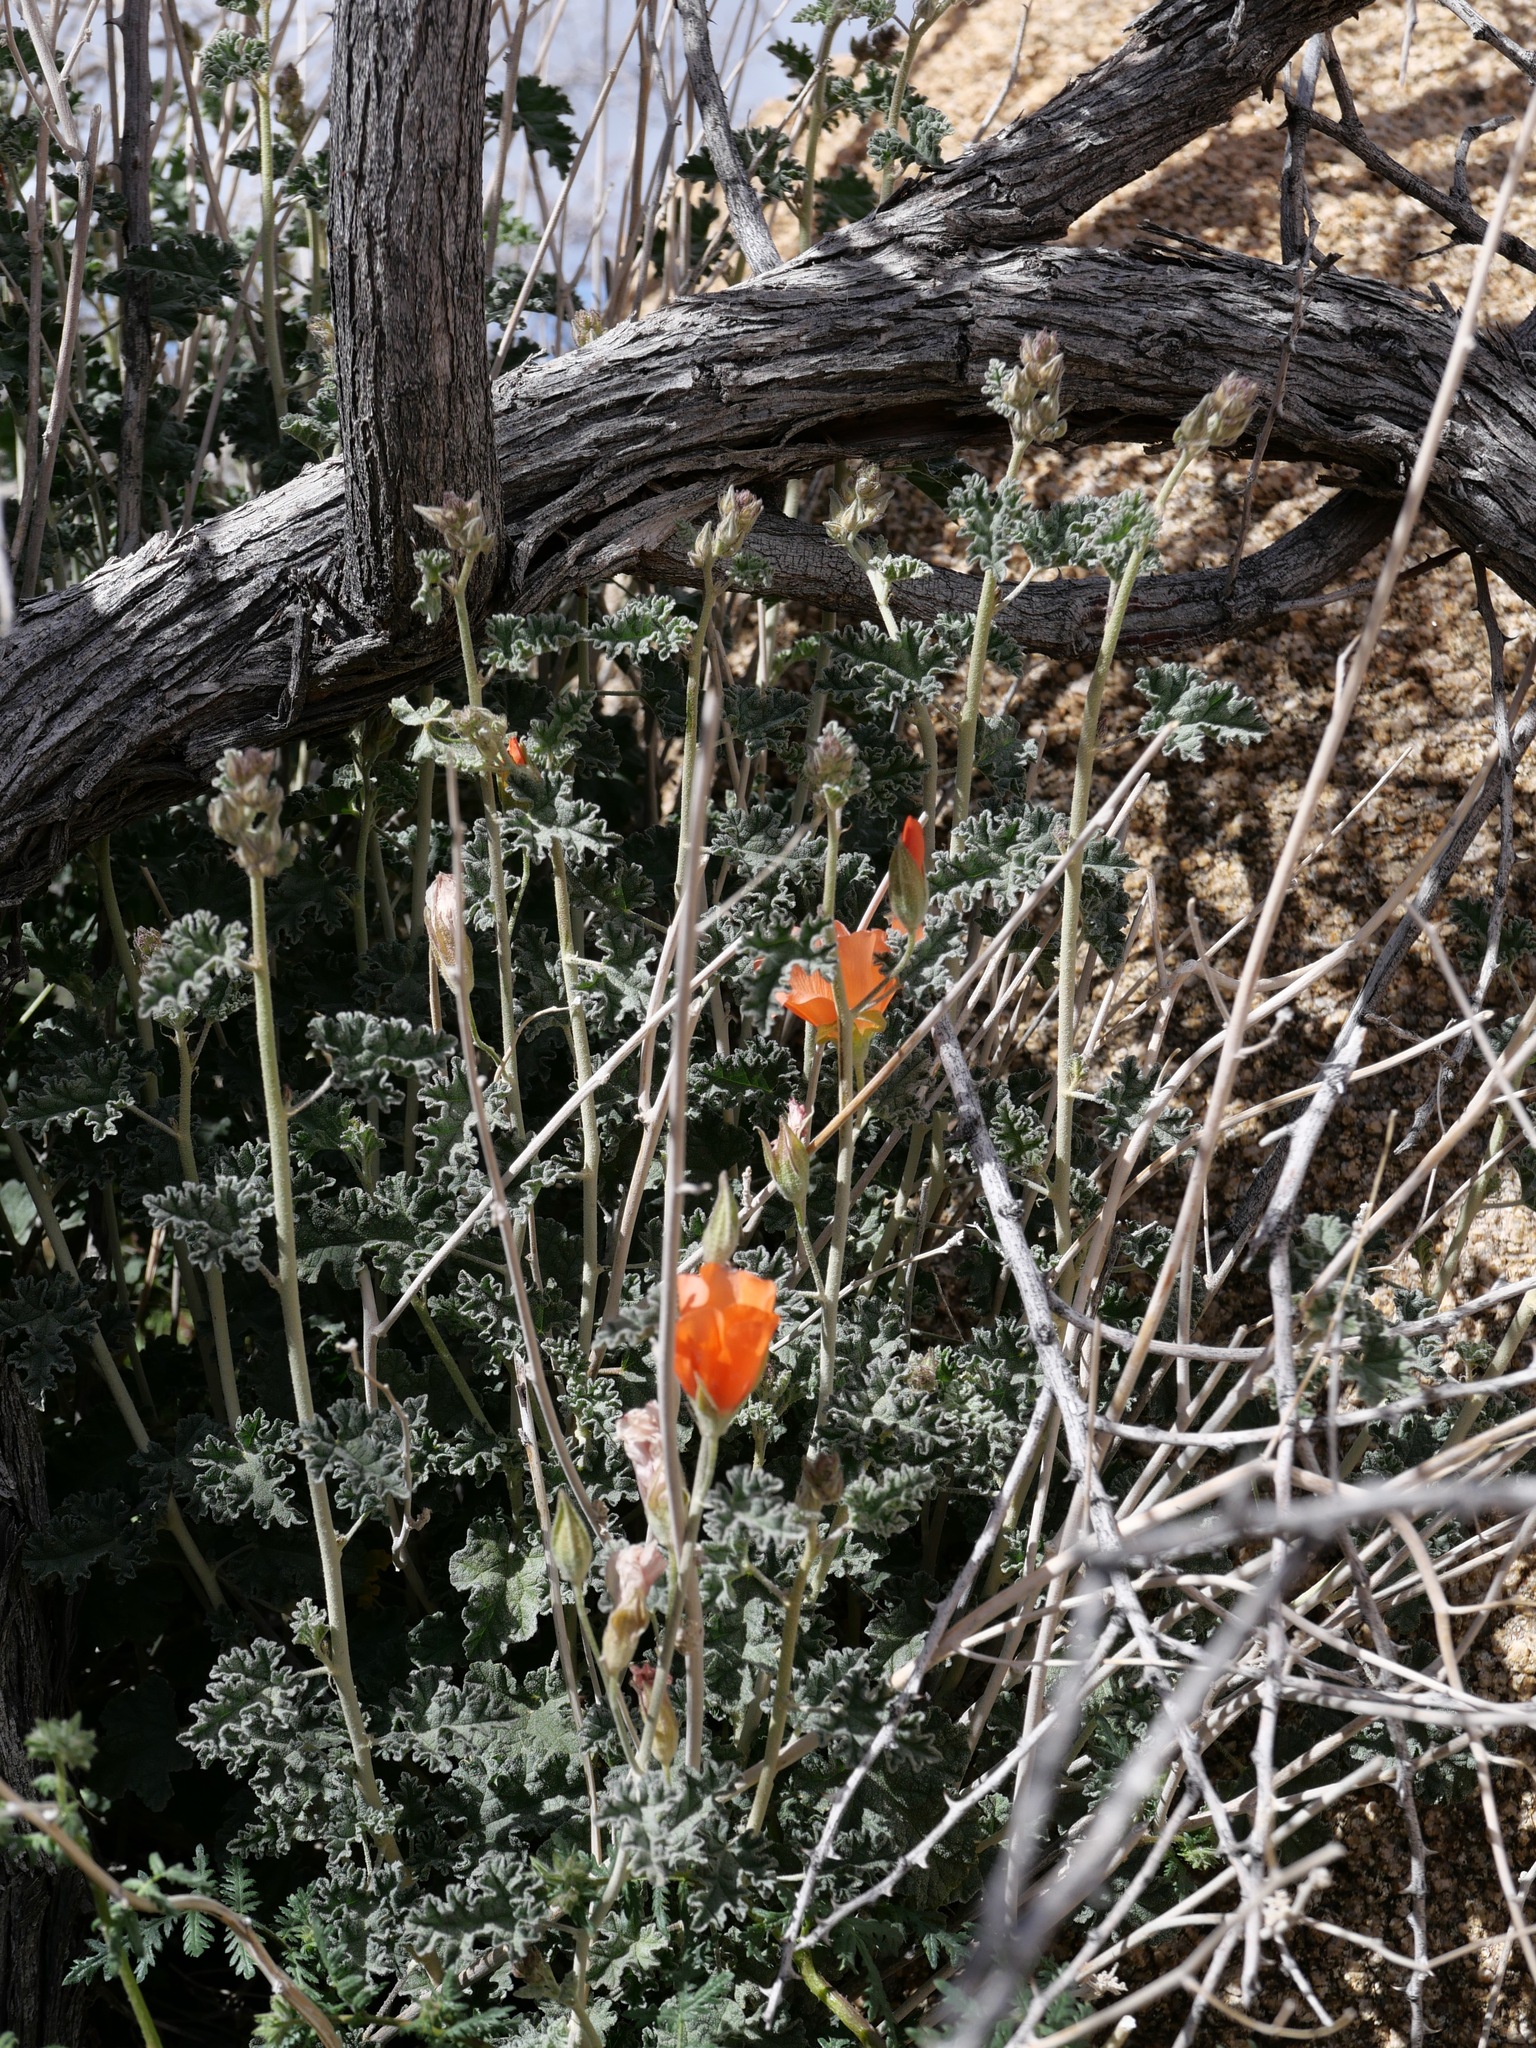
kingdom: Plantae
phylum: Tracheophyta
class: Magnoliopsida
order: Malvales
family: Malvaceae
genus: Sphaeralcea
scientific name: Sphaeralcea ambigua
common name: Apricot globe-mallow
